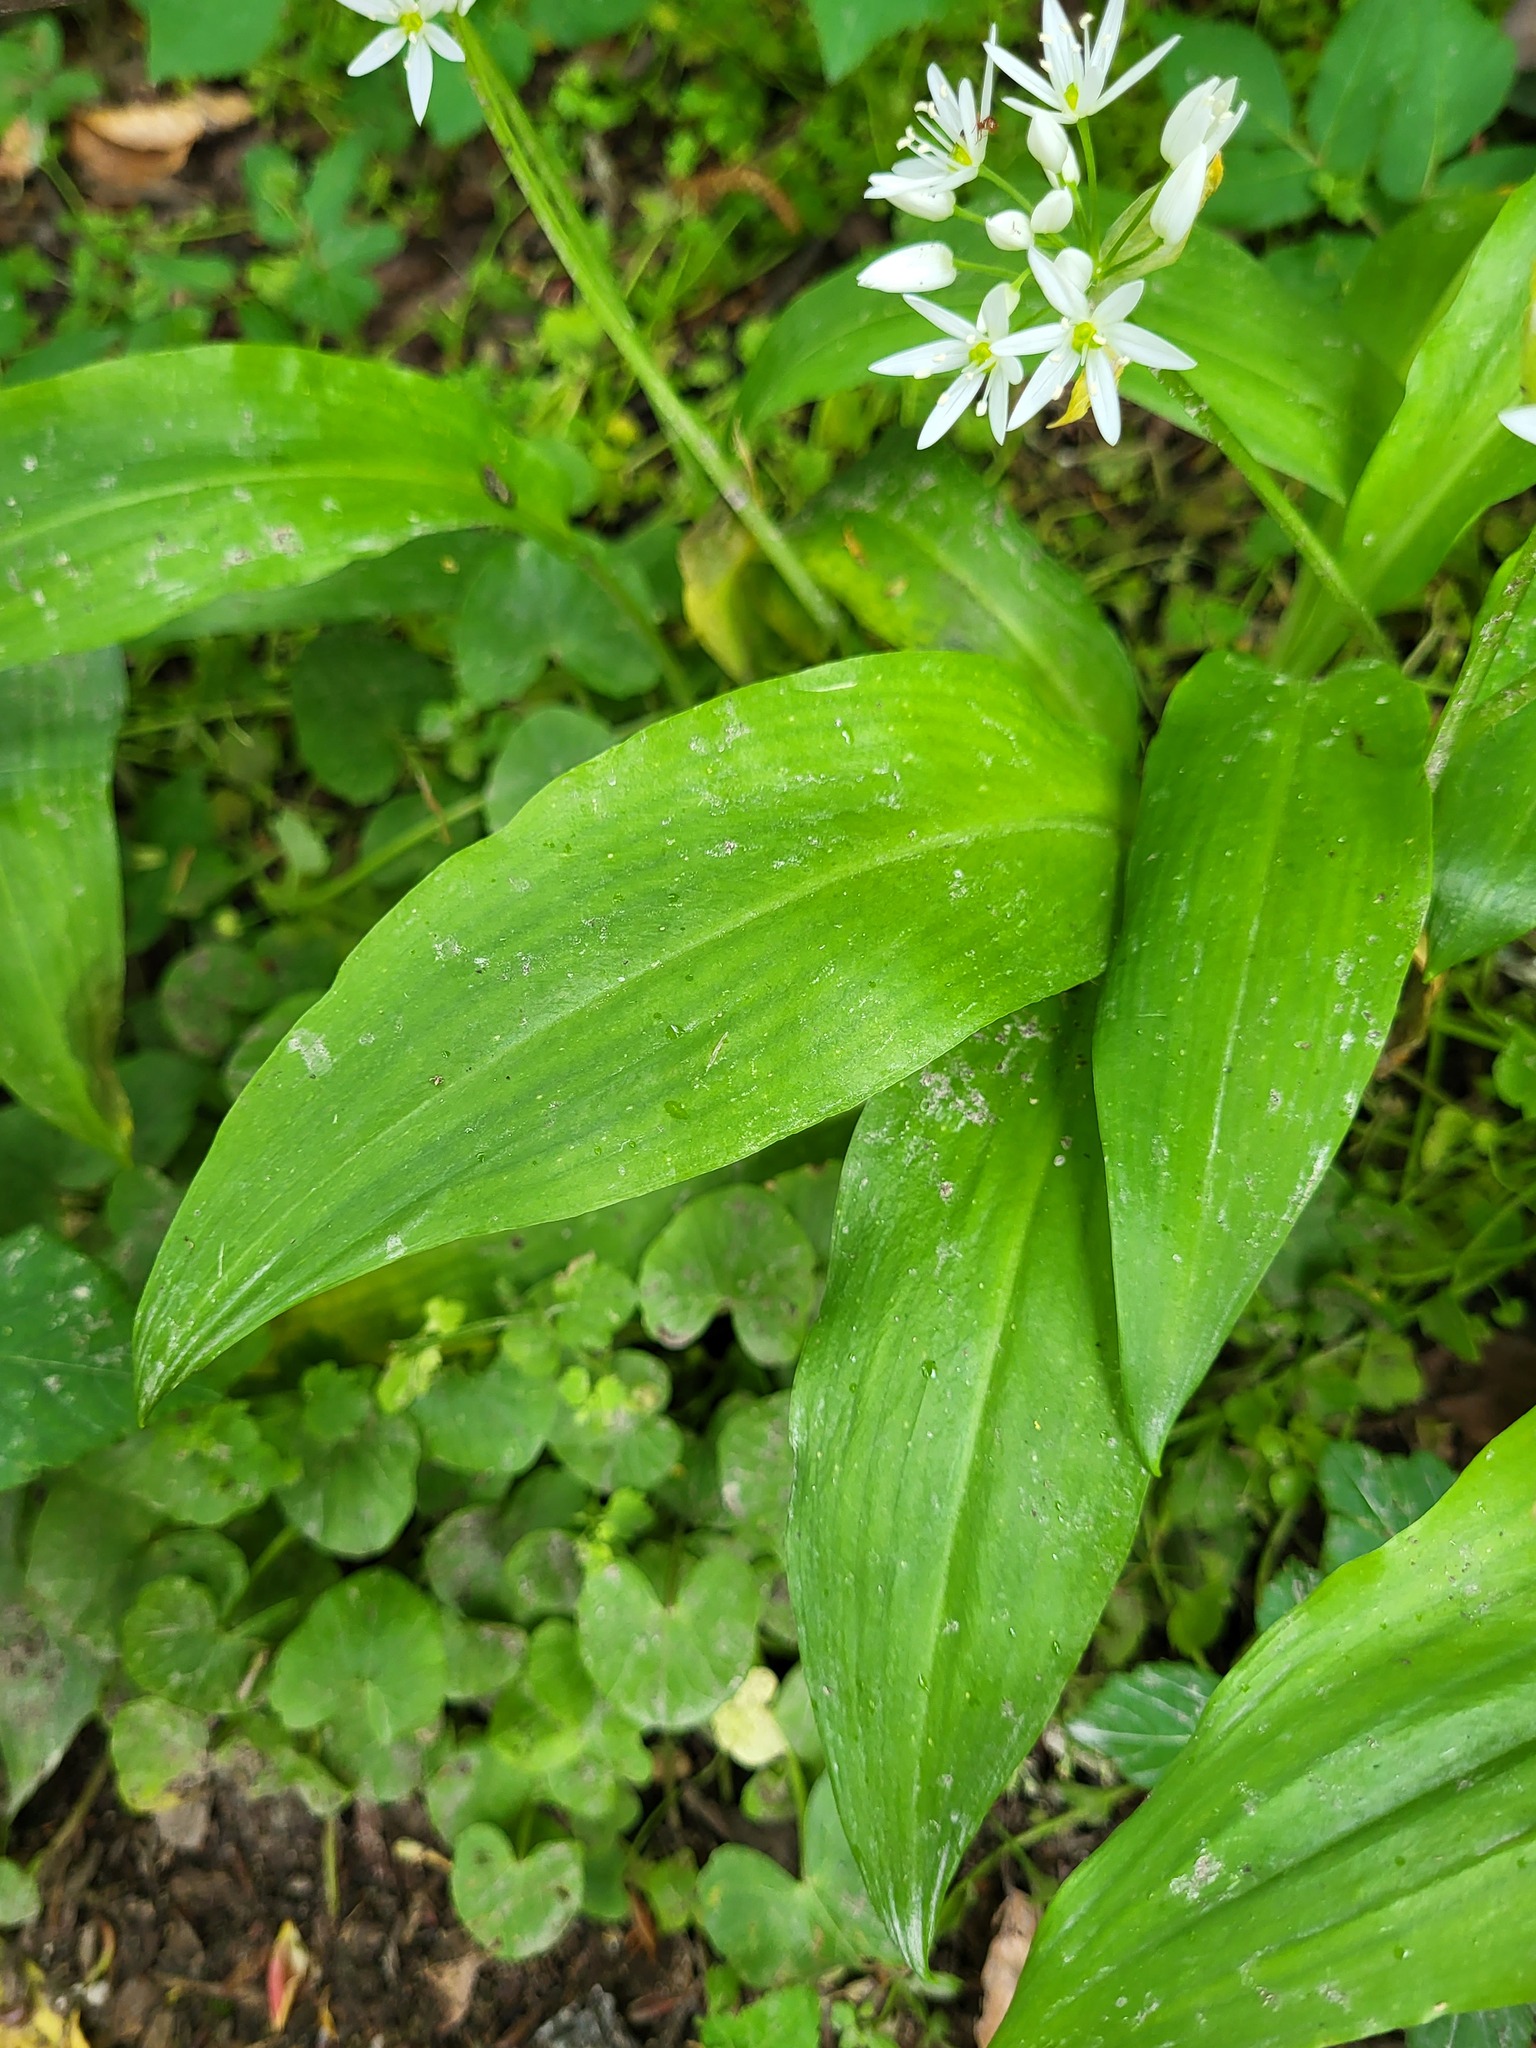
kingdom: Plantae
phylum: Tracheophyta
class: Liliopsida
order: Asparagales
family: Amaryllidaceae
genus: Allium
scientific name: Allium ursinum
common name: Ramsons
